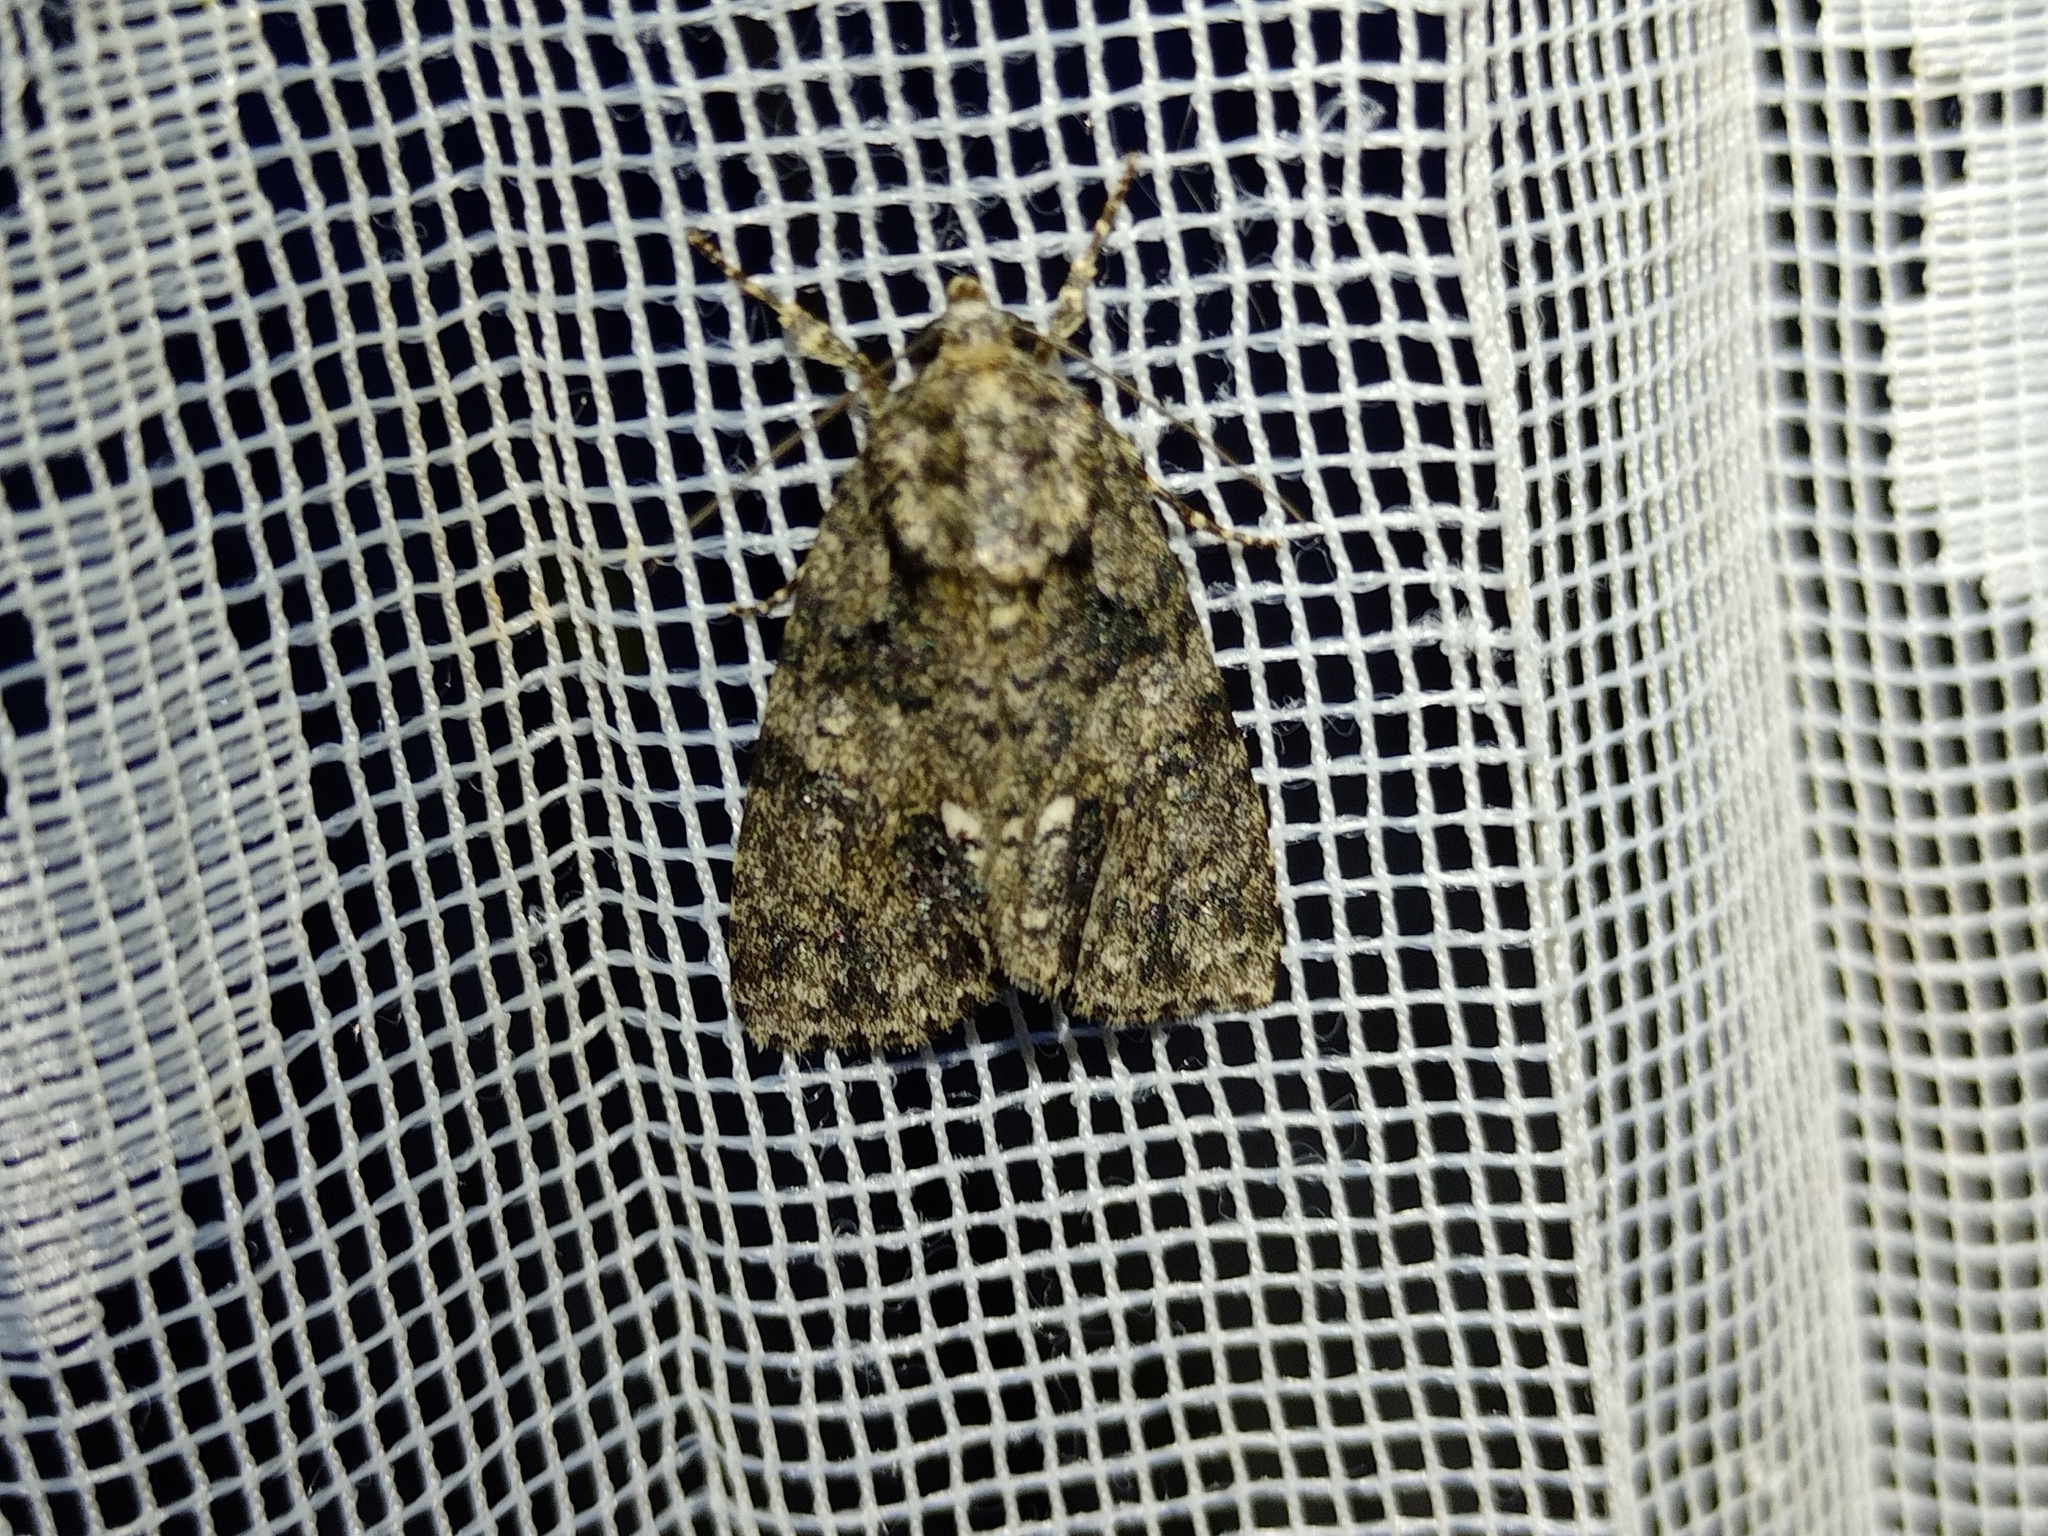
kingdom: Animalia
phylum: Arthropoda
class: Insecta
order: Lepidoptera
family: Noctuidae
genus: Acronicta
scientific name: Acronicta rumicis
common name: Knot grass
